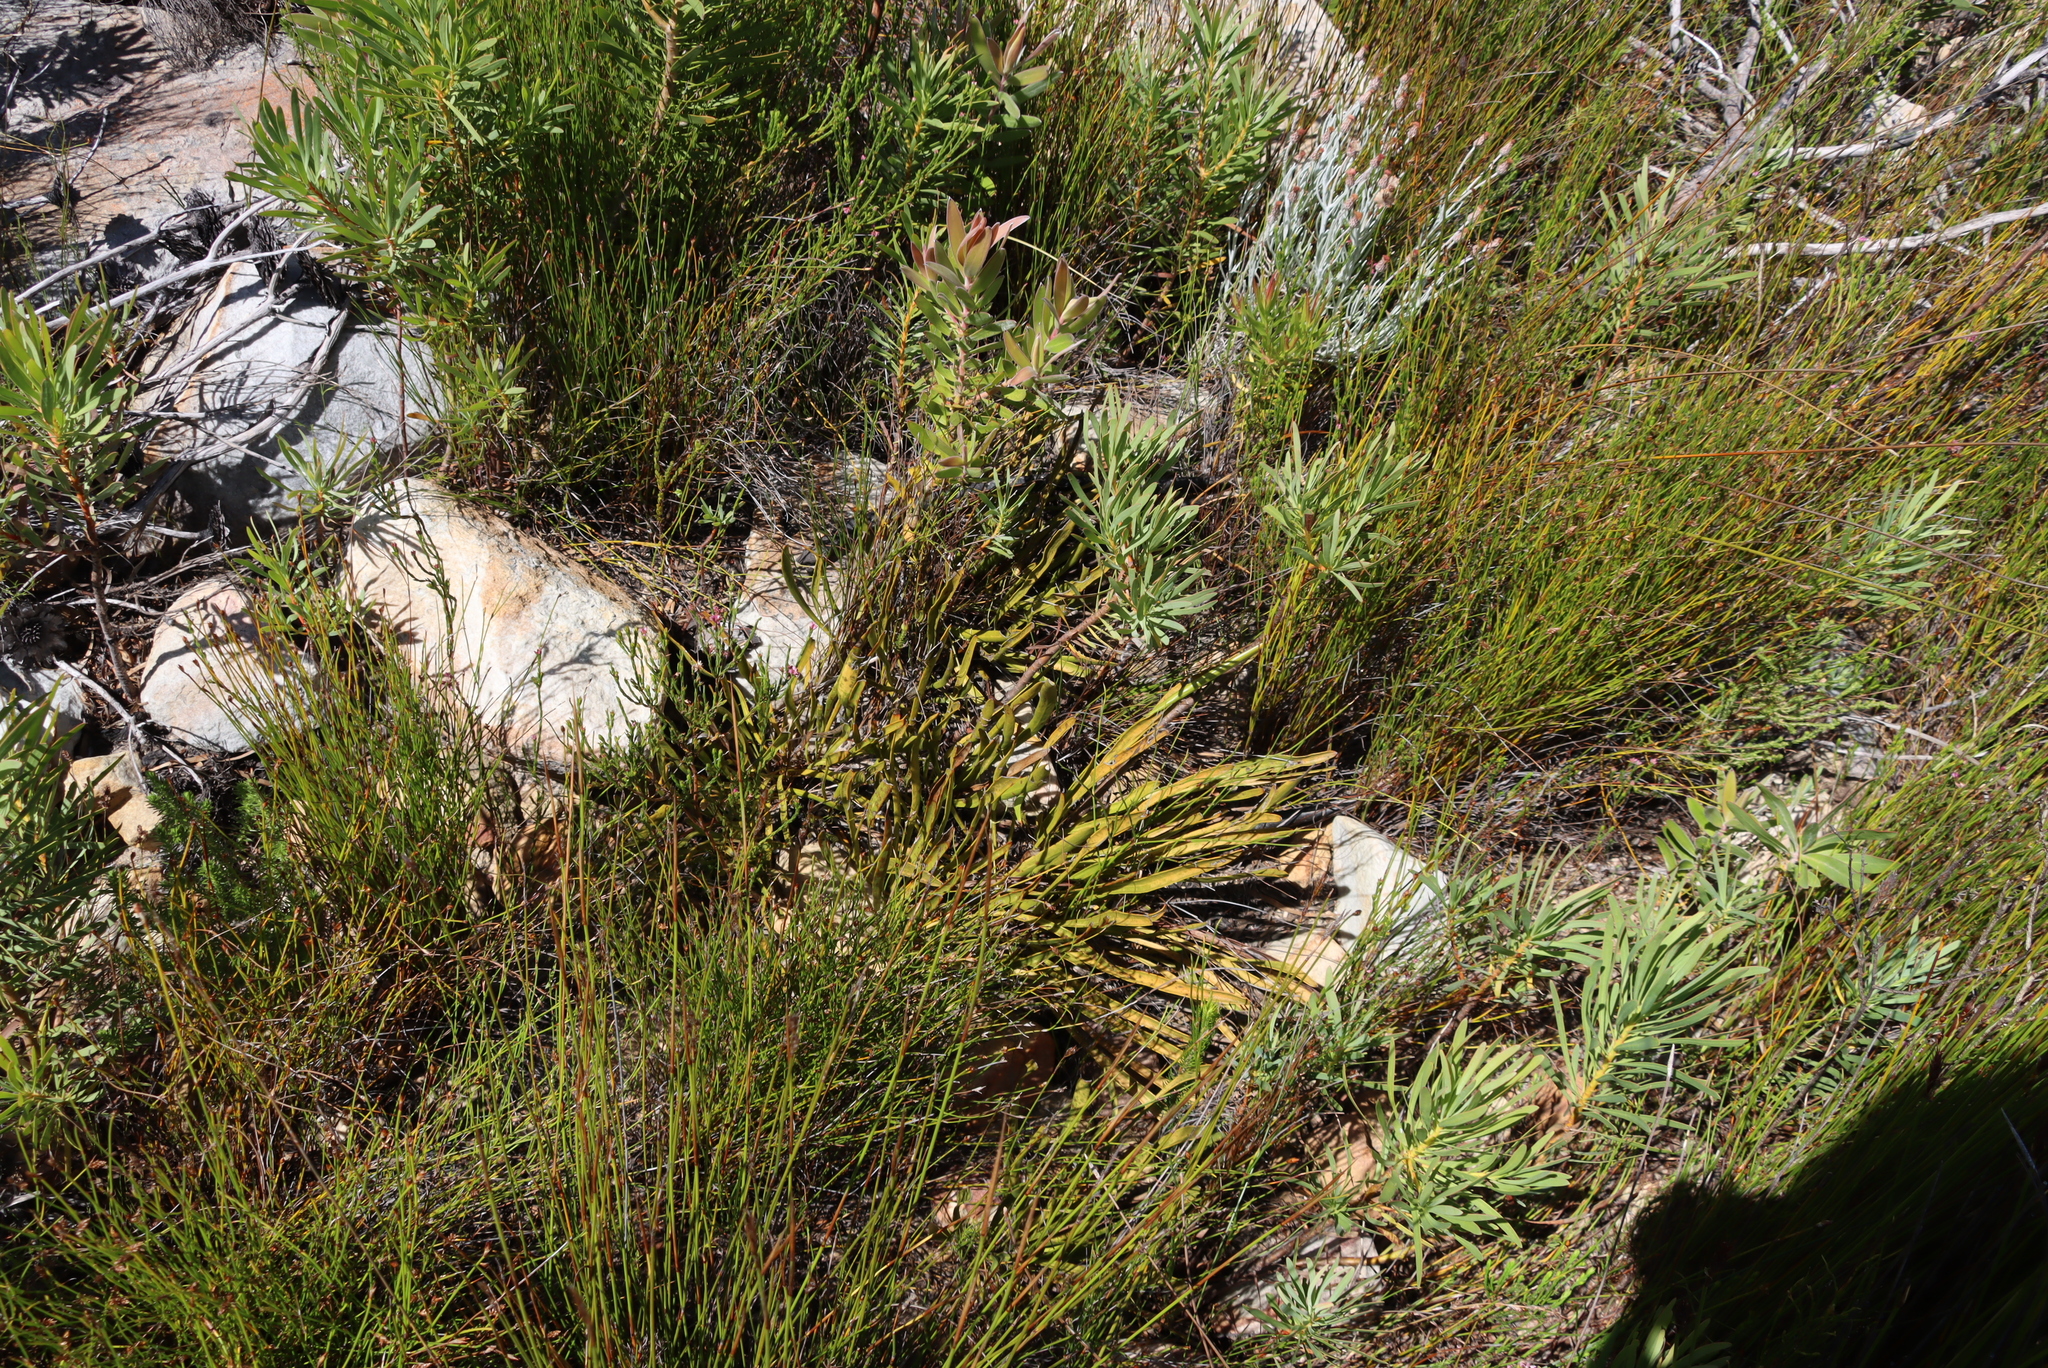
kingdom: Plantae
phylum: Tracheophyta
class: Magnoliopsida
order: Proteales
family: Proteaceae
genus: Protea
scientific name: Protea repens
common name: Sugarbush
